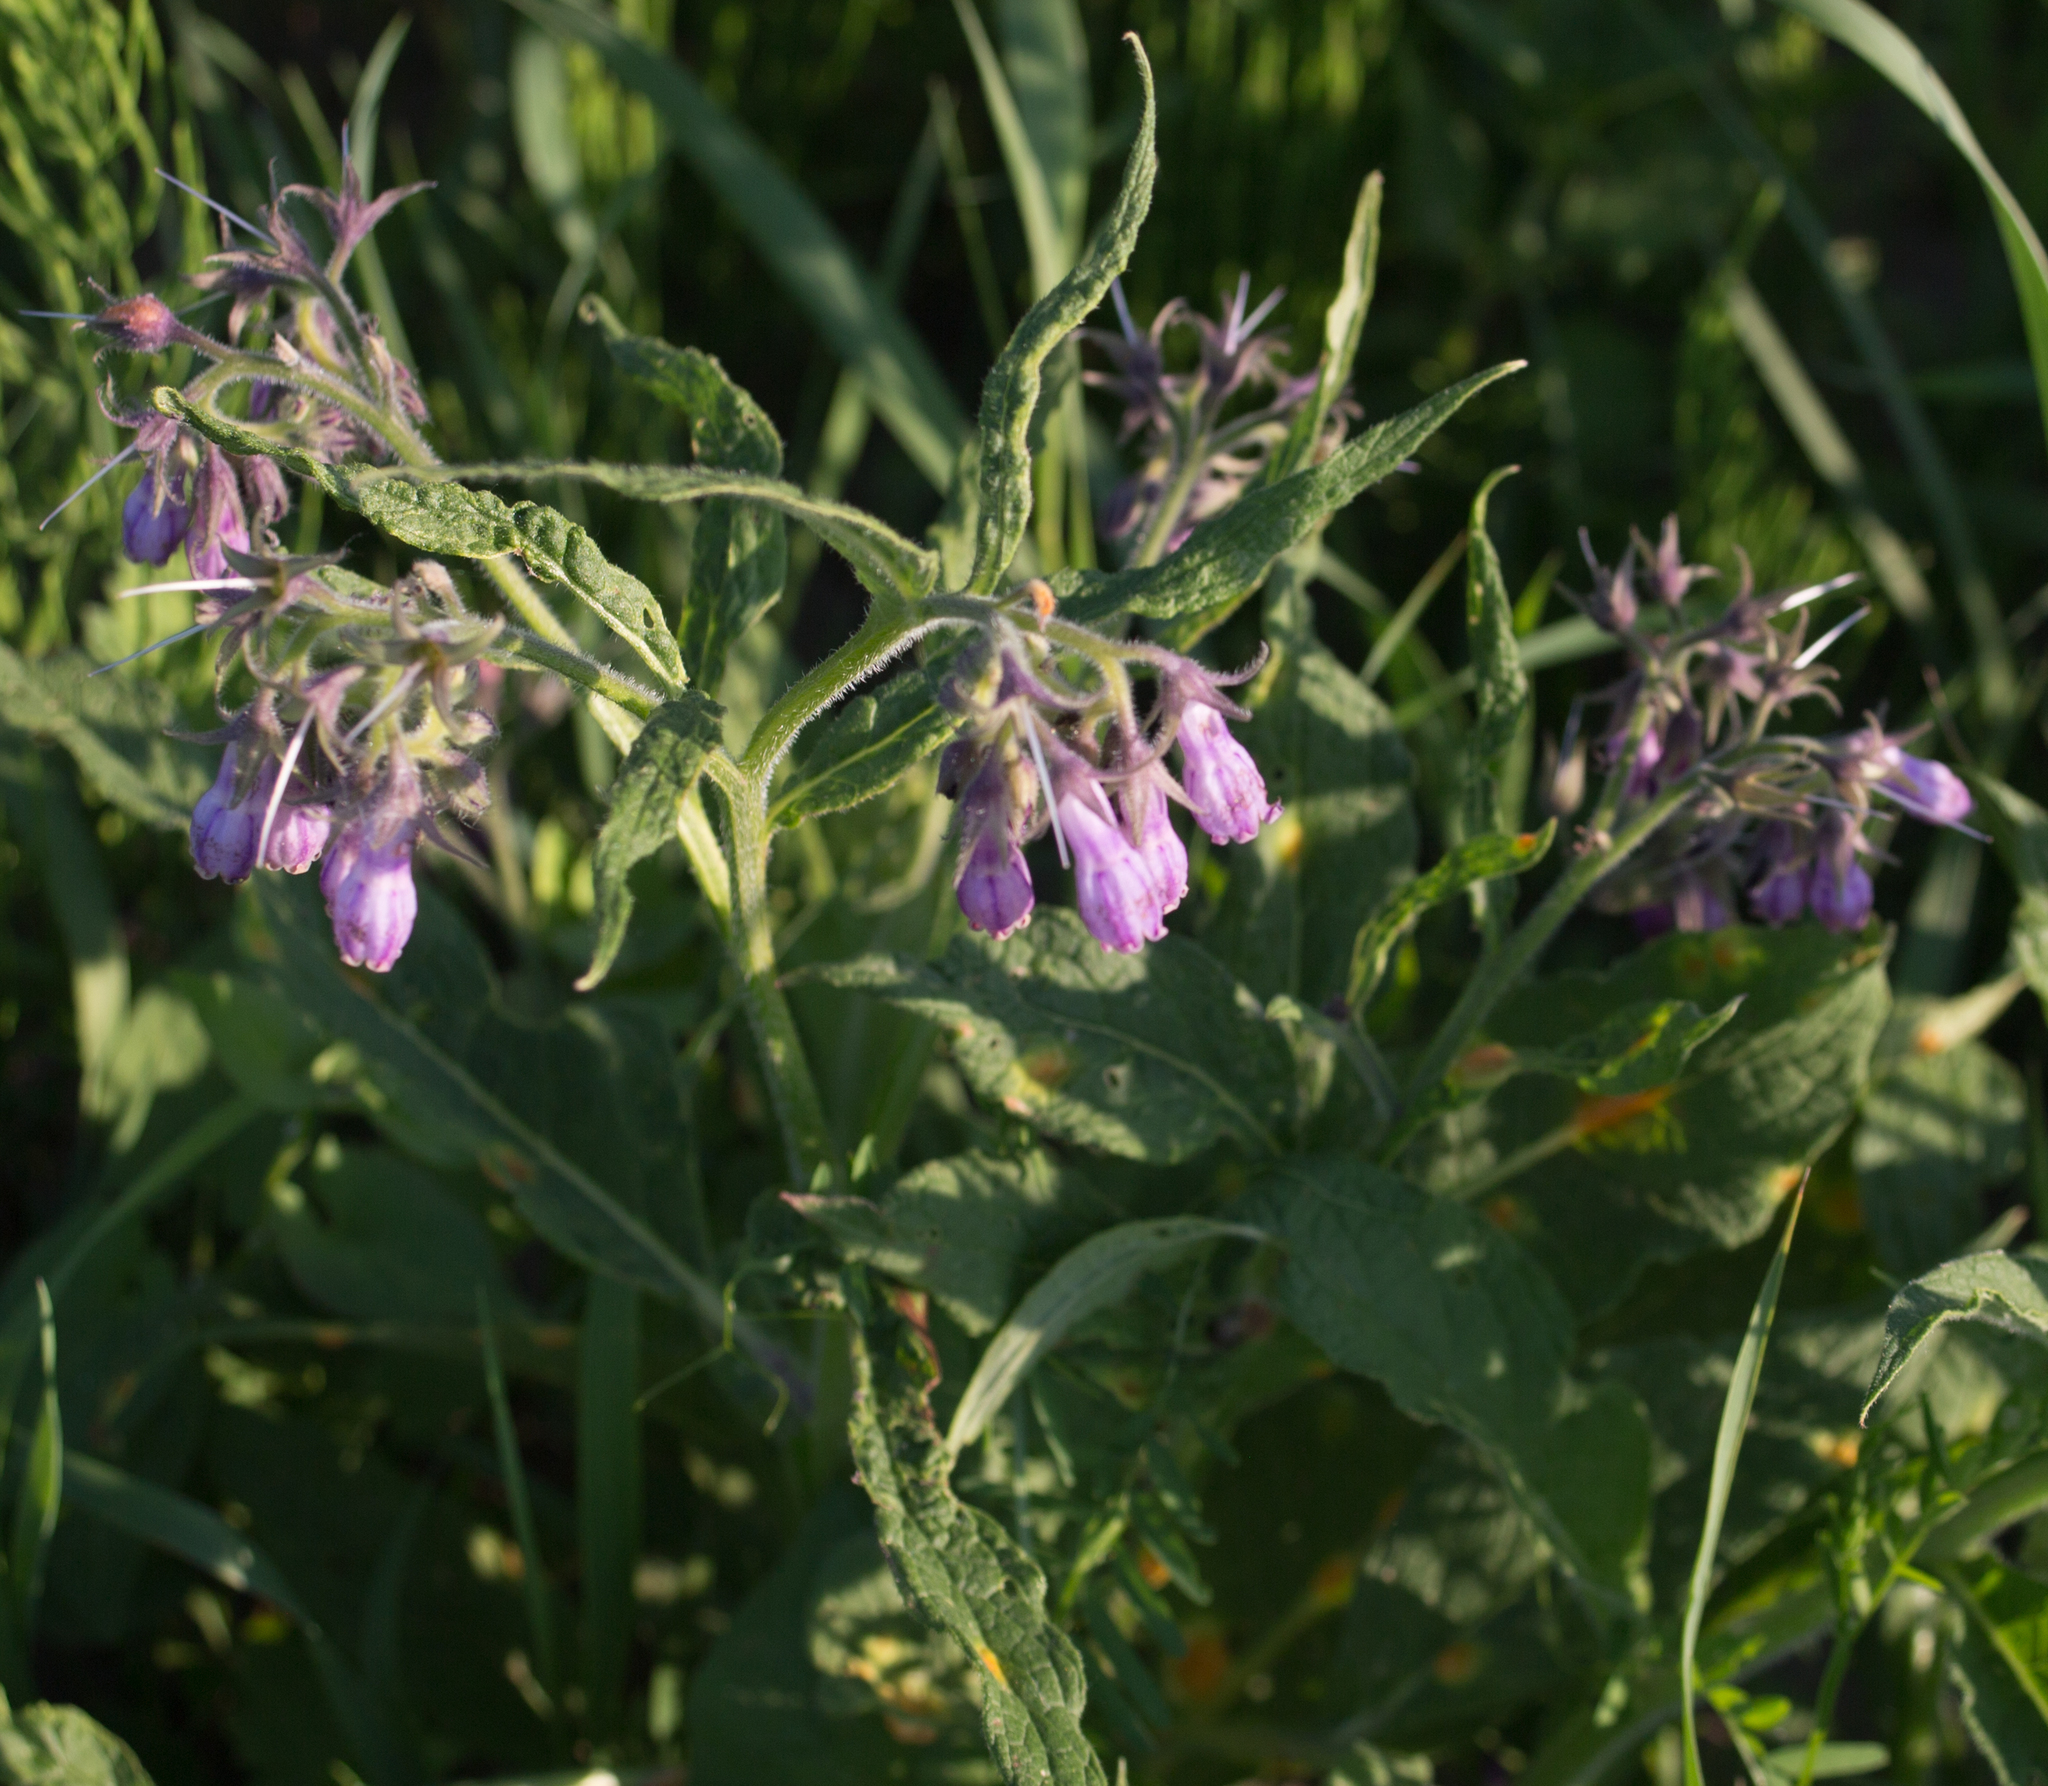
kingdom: Plantae
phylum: Tracheophyta
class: Magnoliopsida
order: Boraginales
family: Boraginaceae
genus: Symphytum
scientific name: Symphytum officinale
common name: Common comfrey
